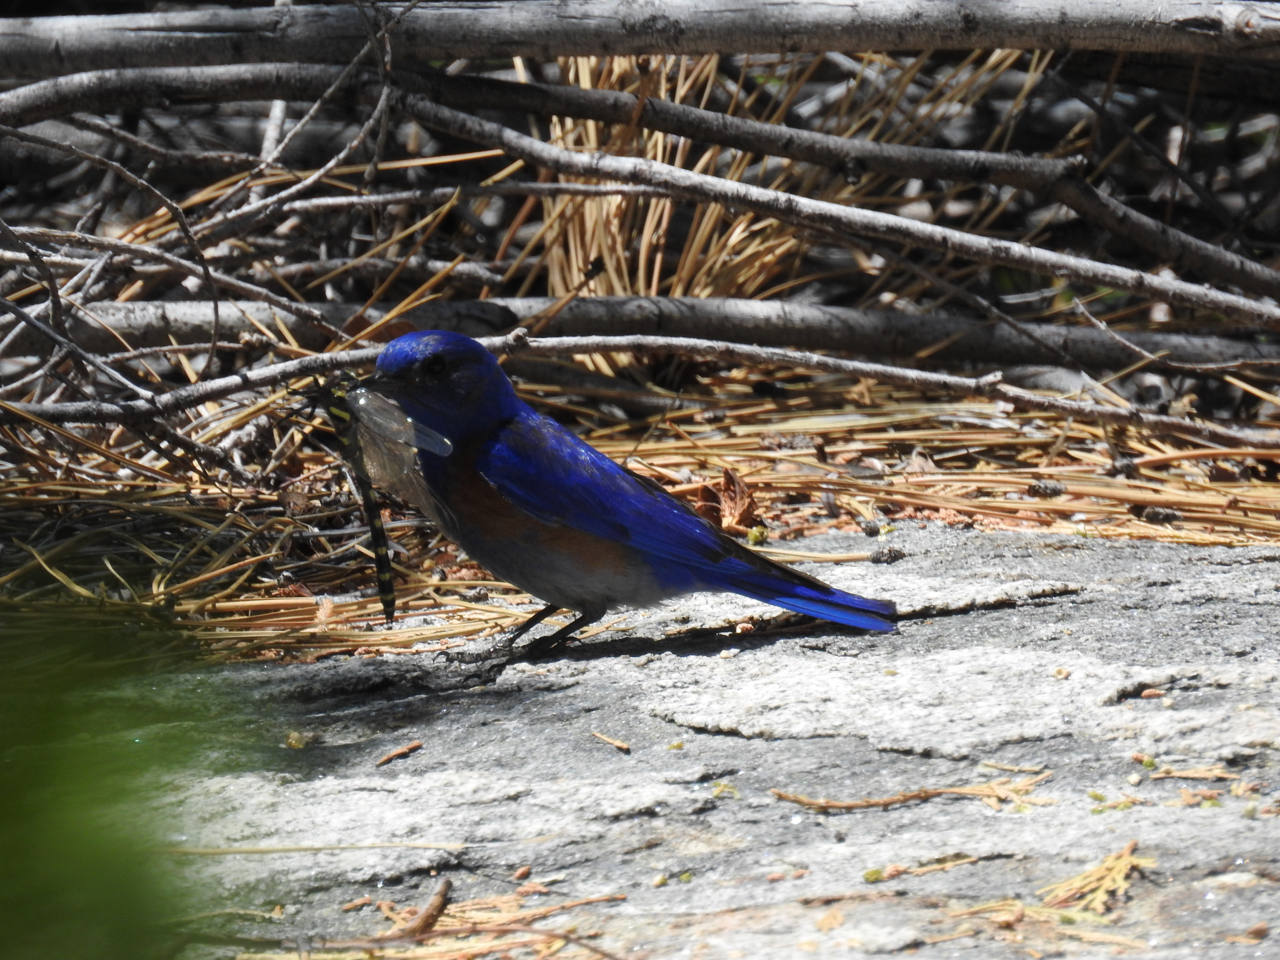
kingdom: Animalia
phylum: Arthropoda
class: Insecta
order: Odonata
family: Cordulegastridae
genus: Cordulegaster
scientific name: Cordulegaster dorsalis
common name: Pacific spiketail
